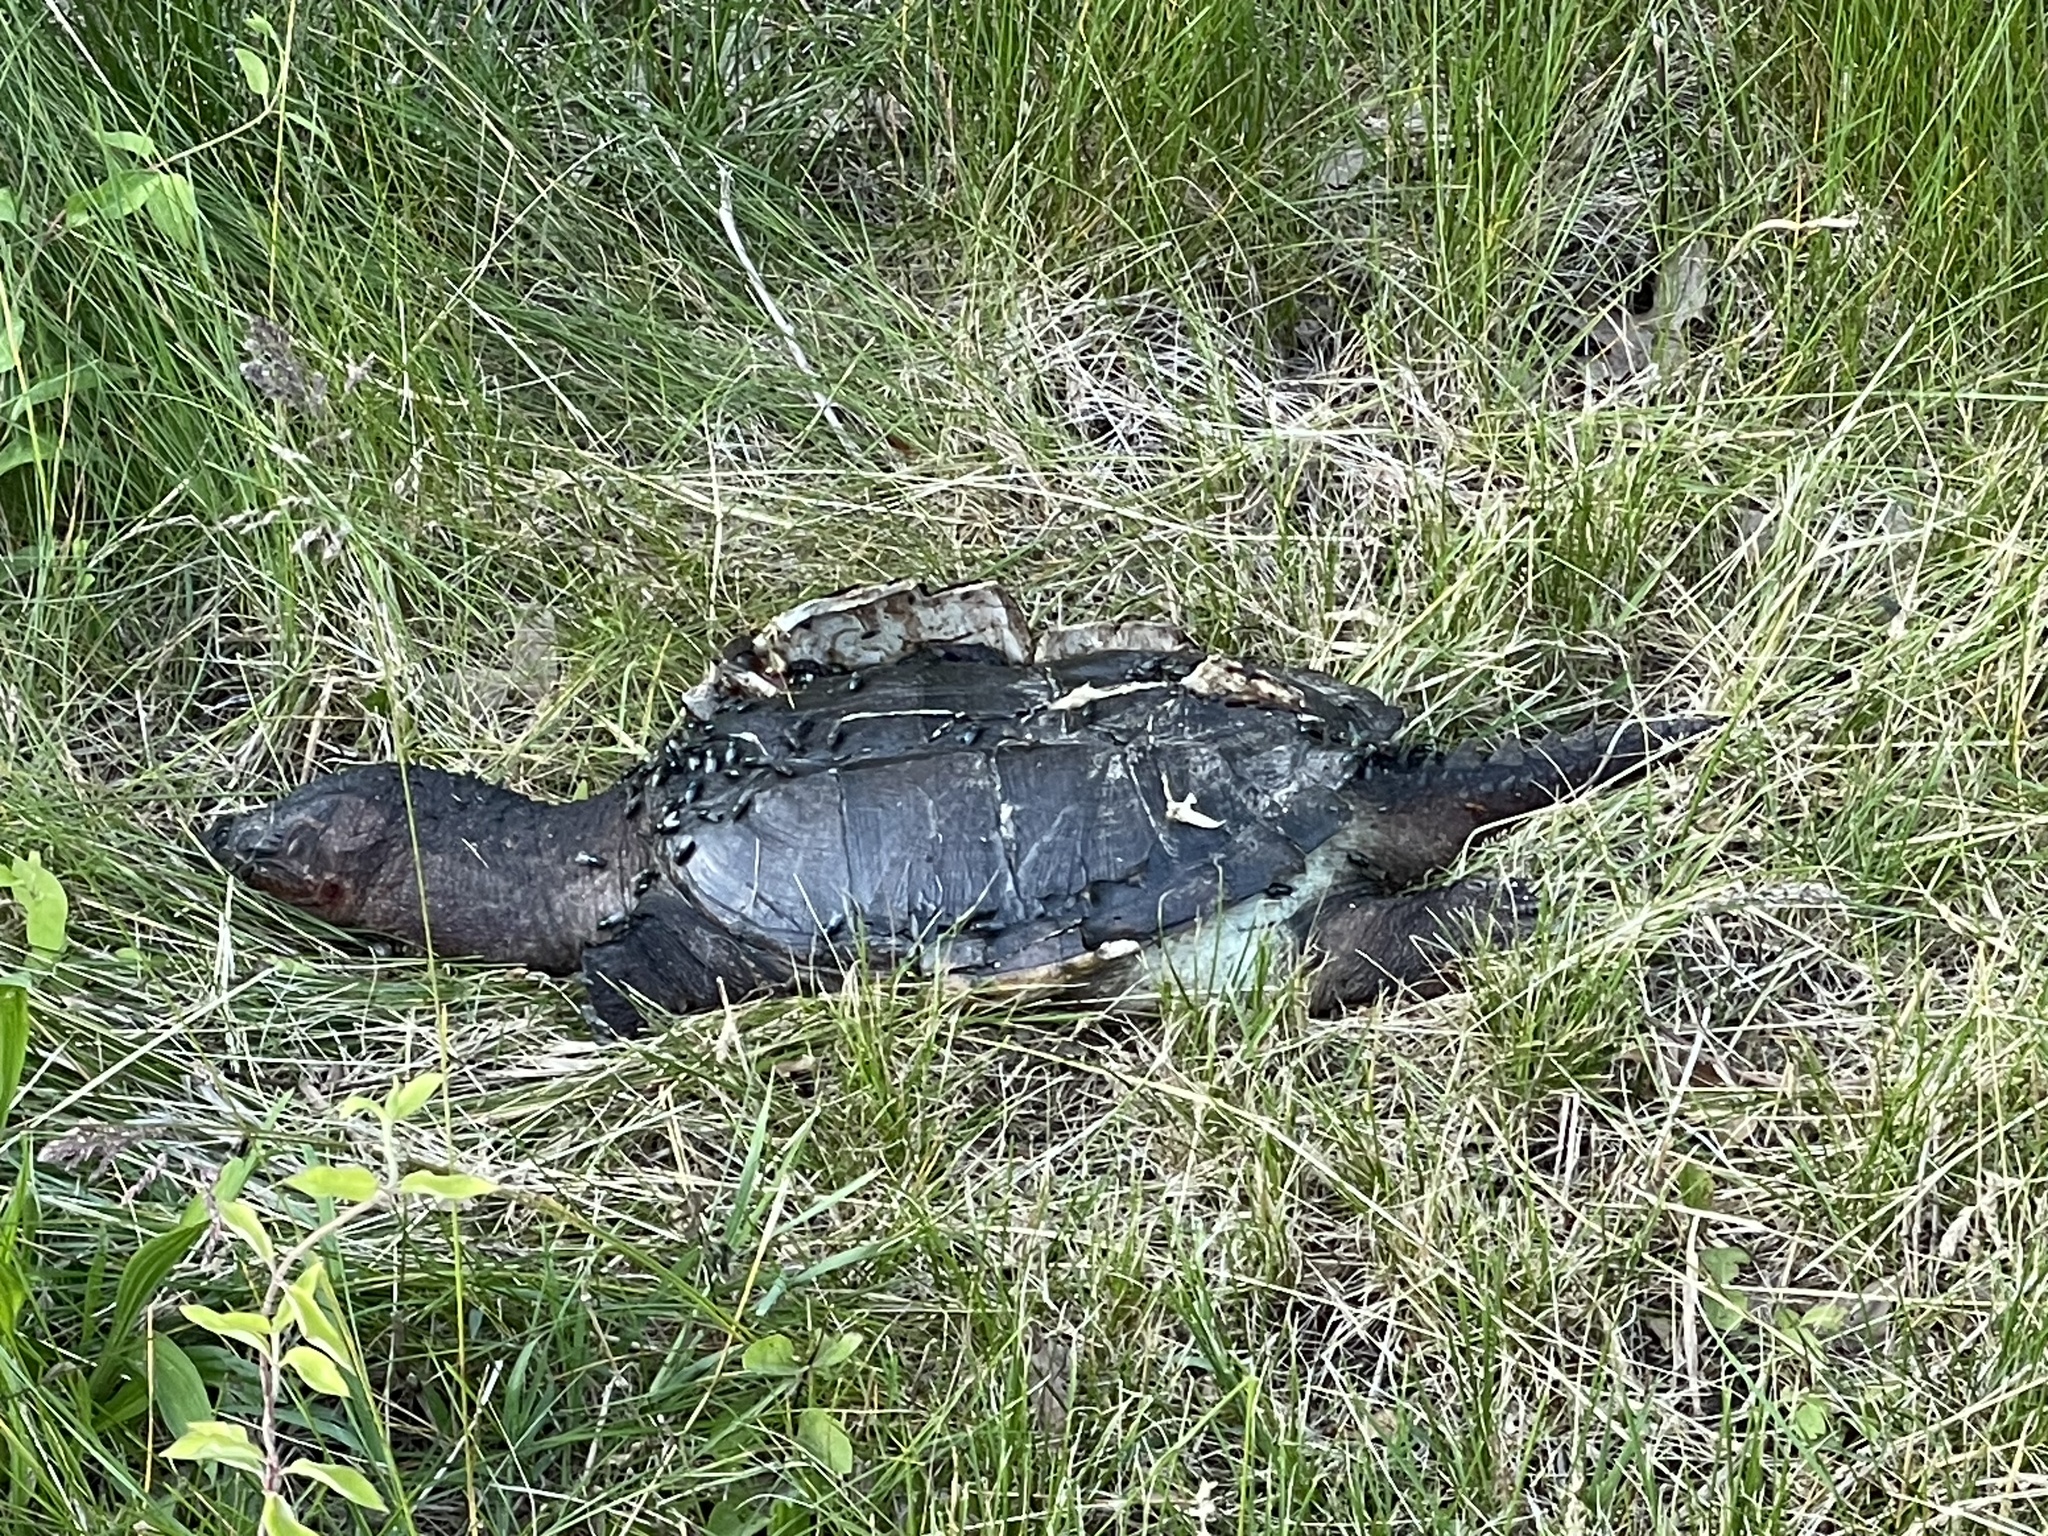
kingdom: Animalia
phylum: Chordata
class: Testudines
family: Chelydridae
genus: Chelydra
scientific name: Chelydra serpentina
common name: Common snapping turtle
